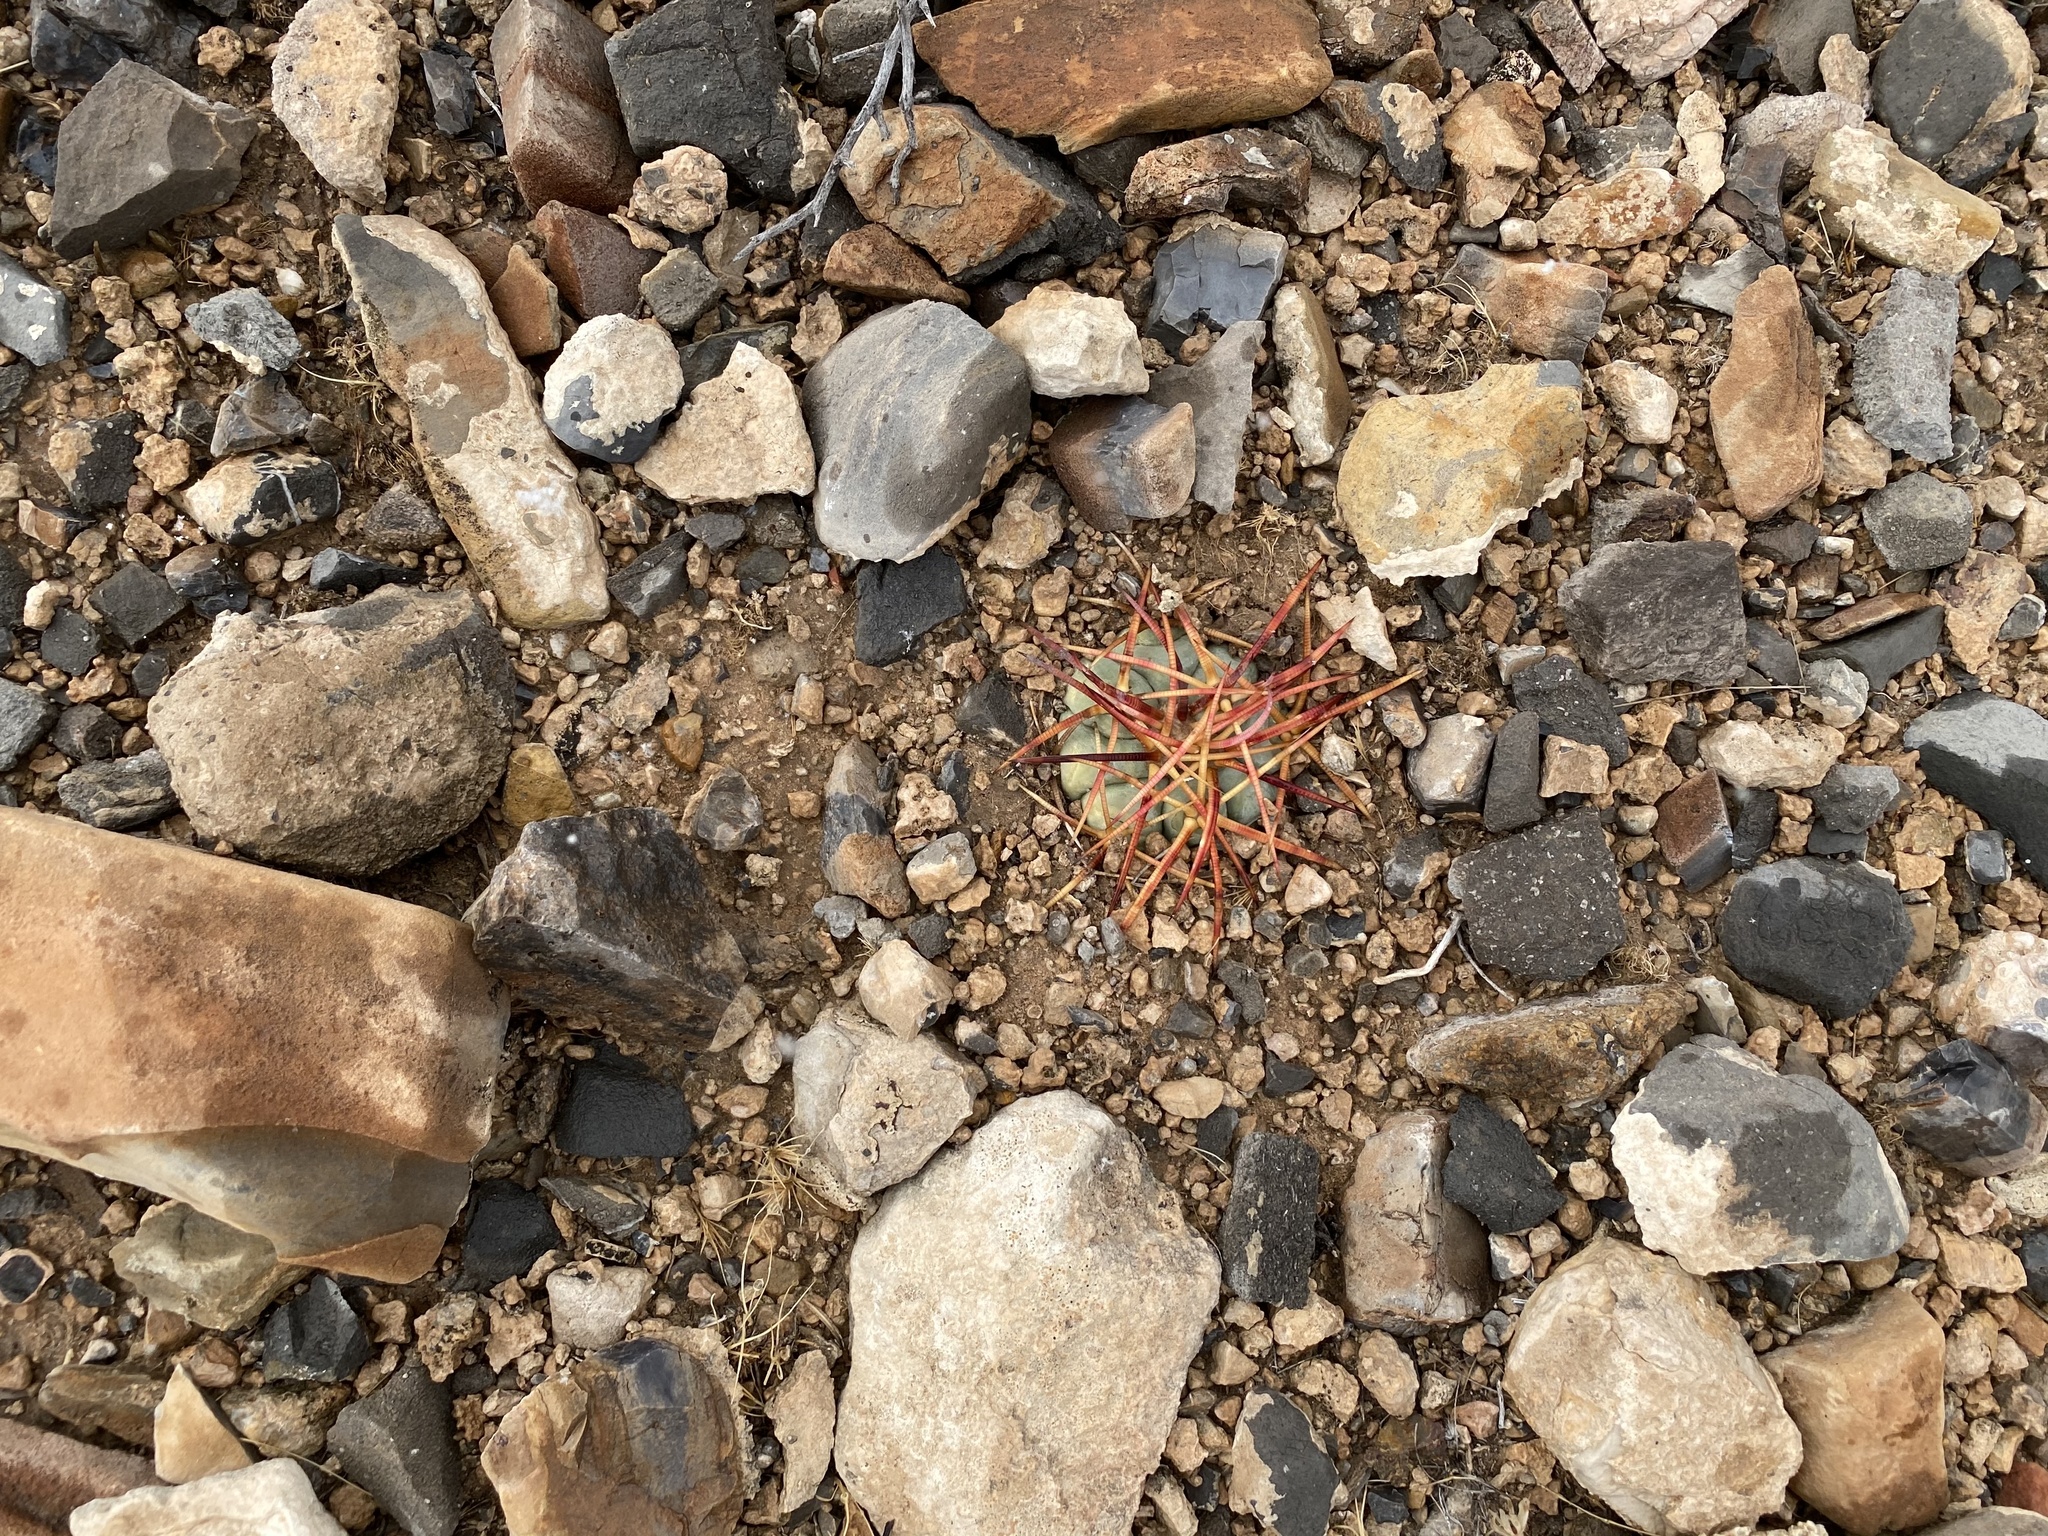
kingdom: Plantae
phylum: Tracheophyta
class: Magnoliopsida
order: Caryophyllales
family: Cactaceae
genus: Echinocactus
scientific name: Echinocactus horizonthalonius
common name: Devilshead
